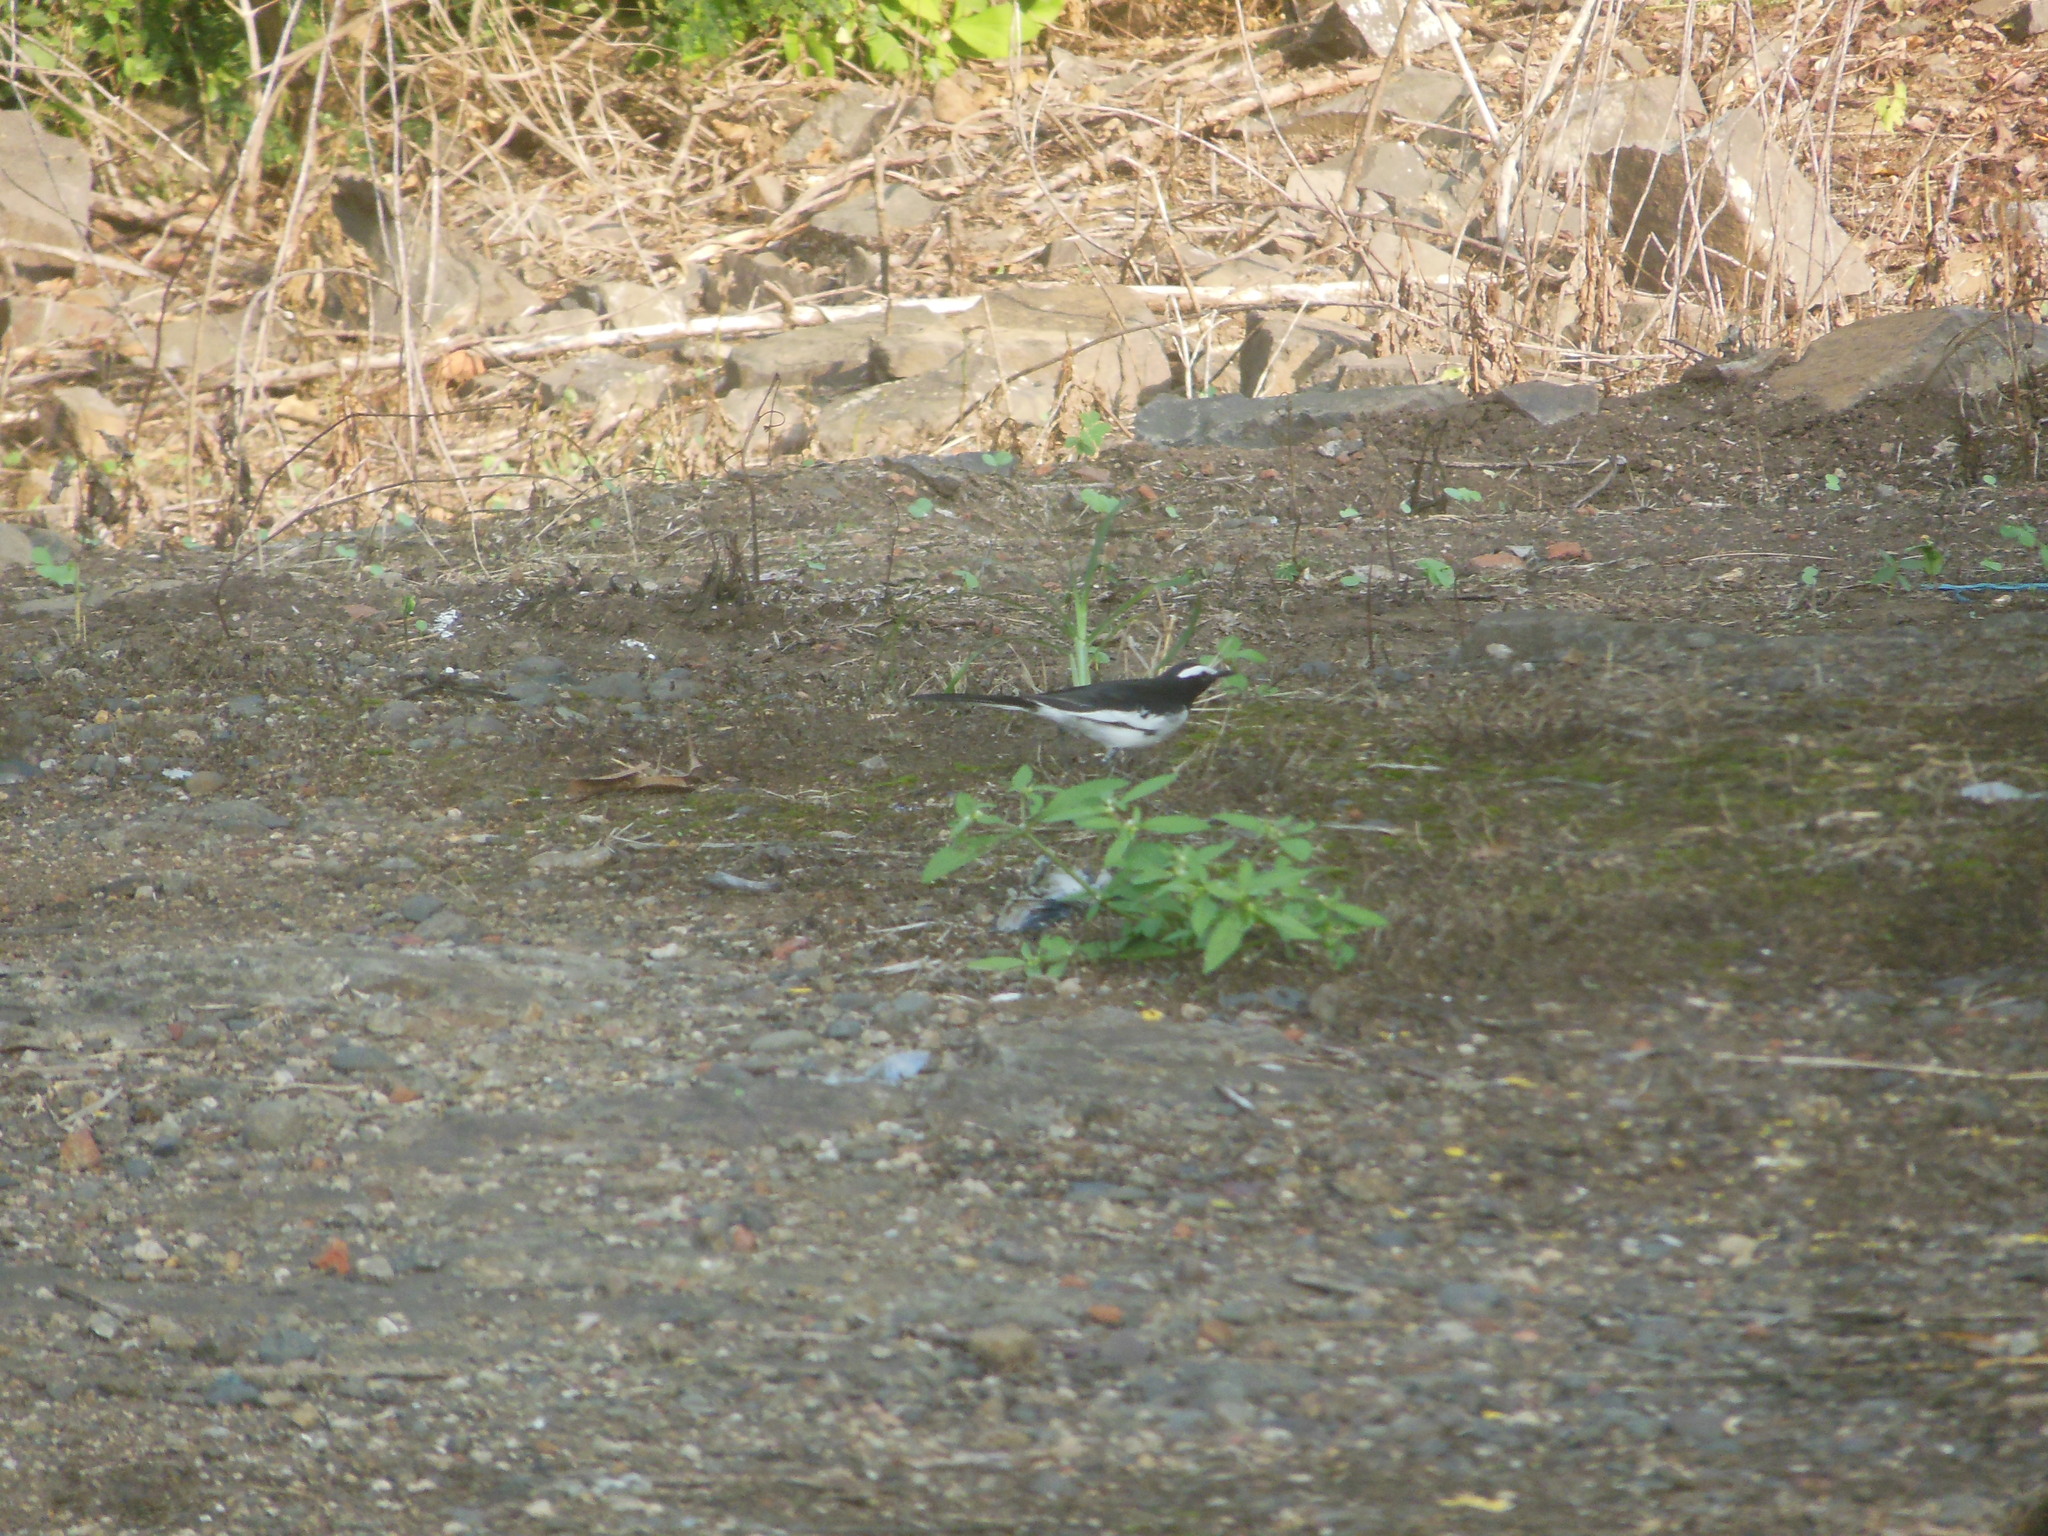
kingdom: Animalia
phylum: Chordata
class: Aves
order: Passeriformes
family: Motacillidae
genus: Motacilla
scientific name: Motacilla maderaspatensis
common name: White-browed wagtail
